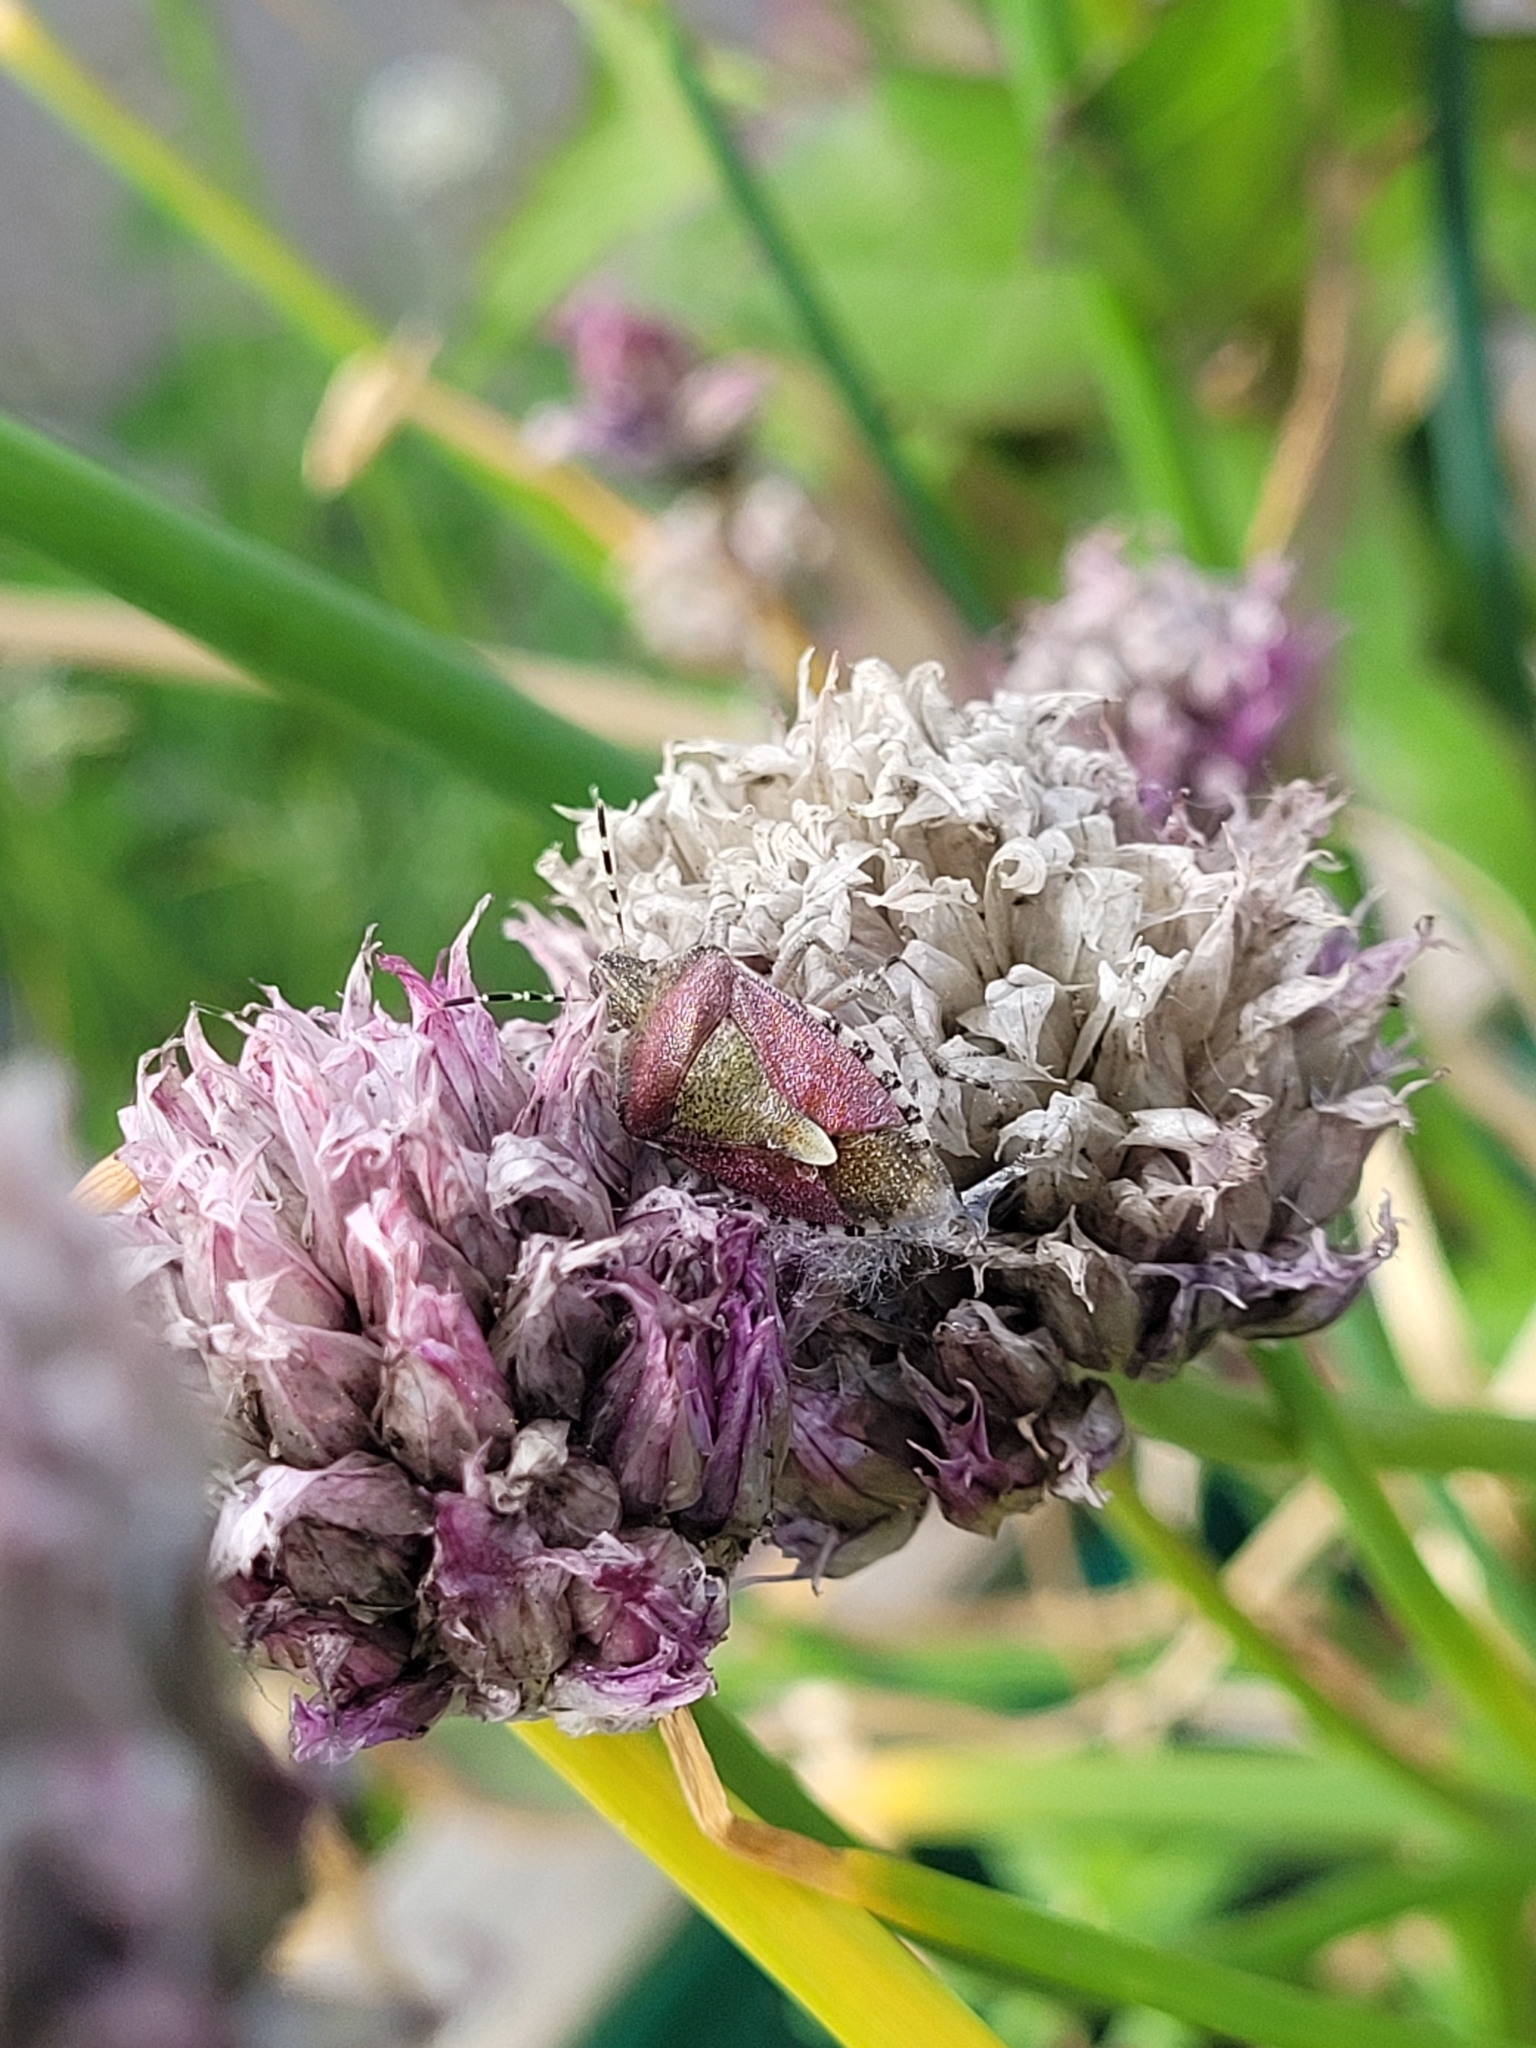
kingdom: Animalia
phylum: Arthropoda
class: Insecta
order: Hemiptera
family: Pentatomidae
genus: Dolycoris
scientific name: Dolycoris baccarum
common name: Sloe bug
